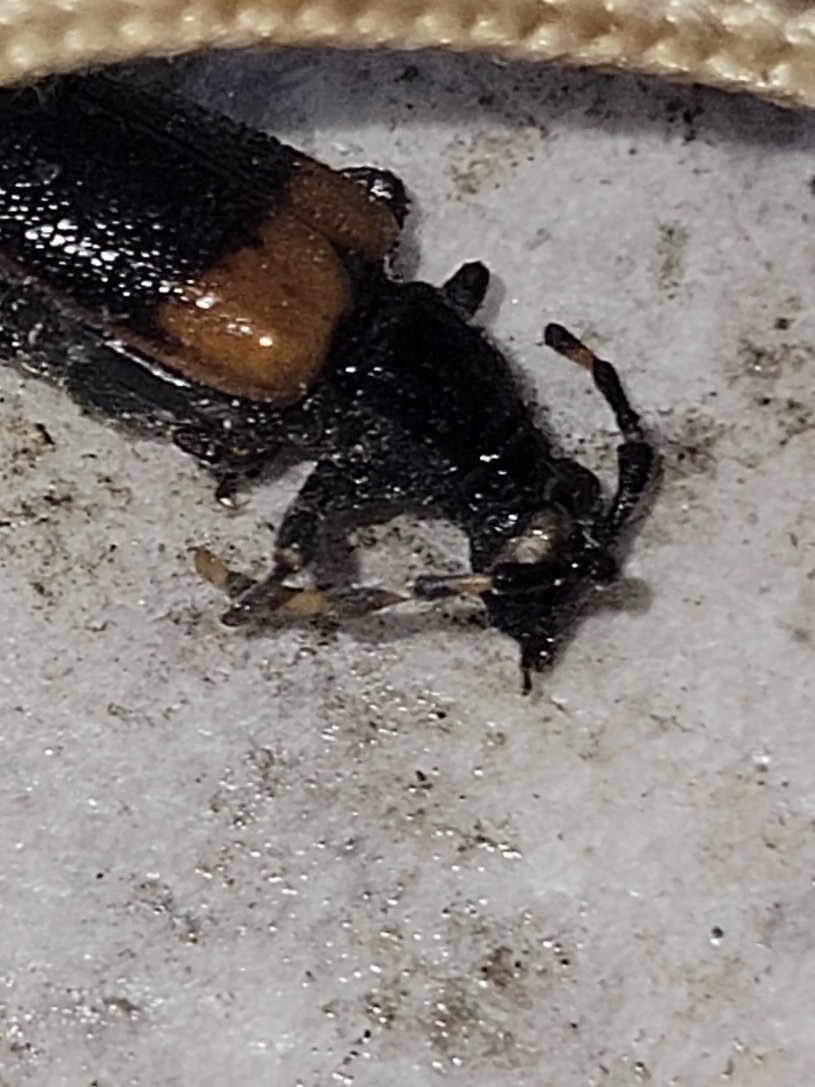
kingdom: Animalia
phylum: Arthropoda
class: Insecta
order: Coleoptera
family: Cerambycidae
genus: Stictoleptura
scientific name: Stictoleptura canadensis
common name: Red-shouldered pine borer
